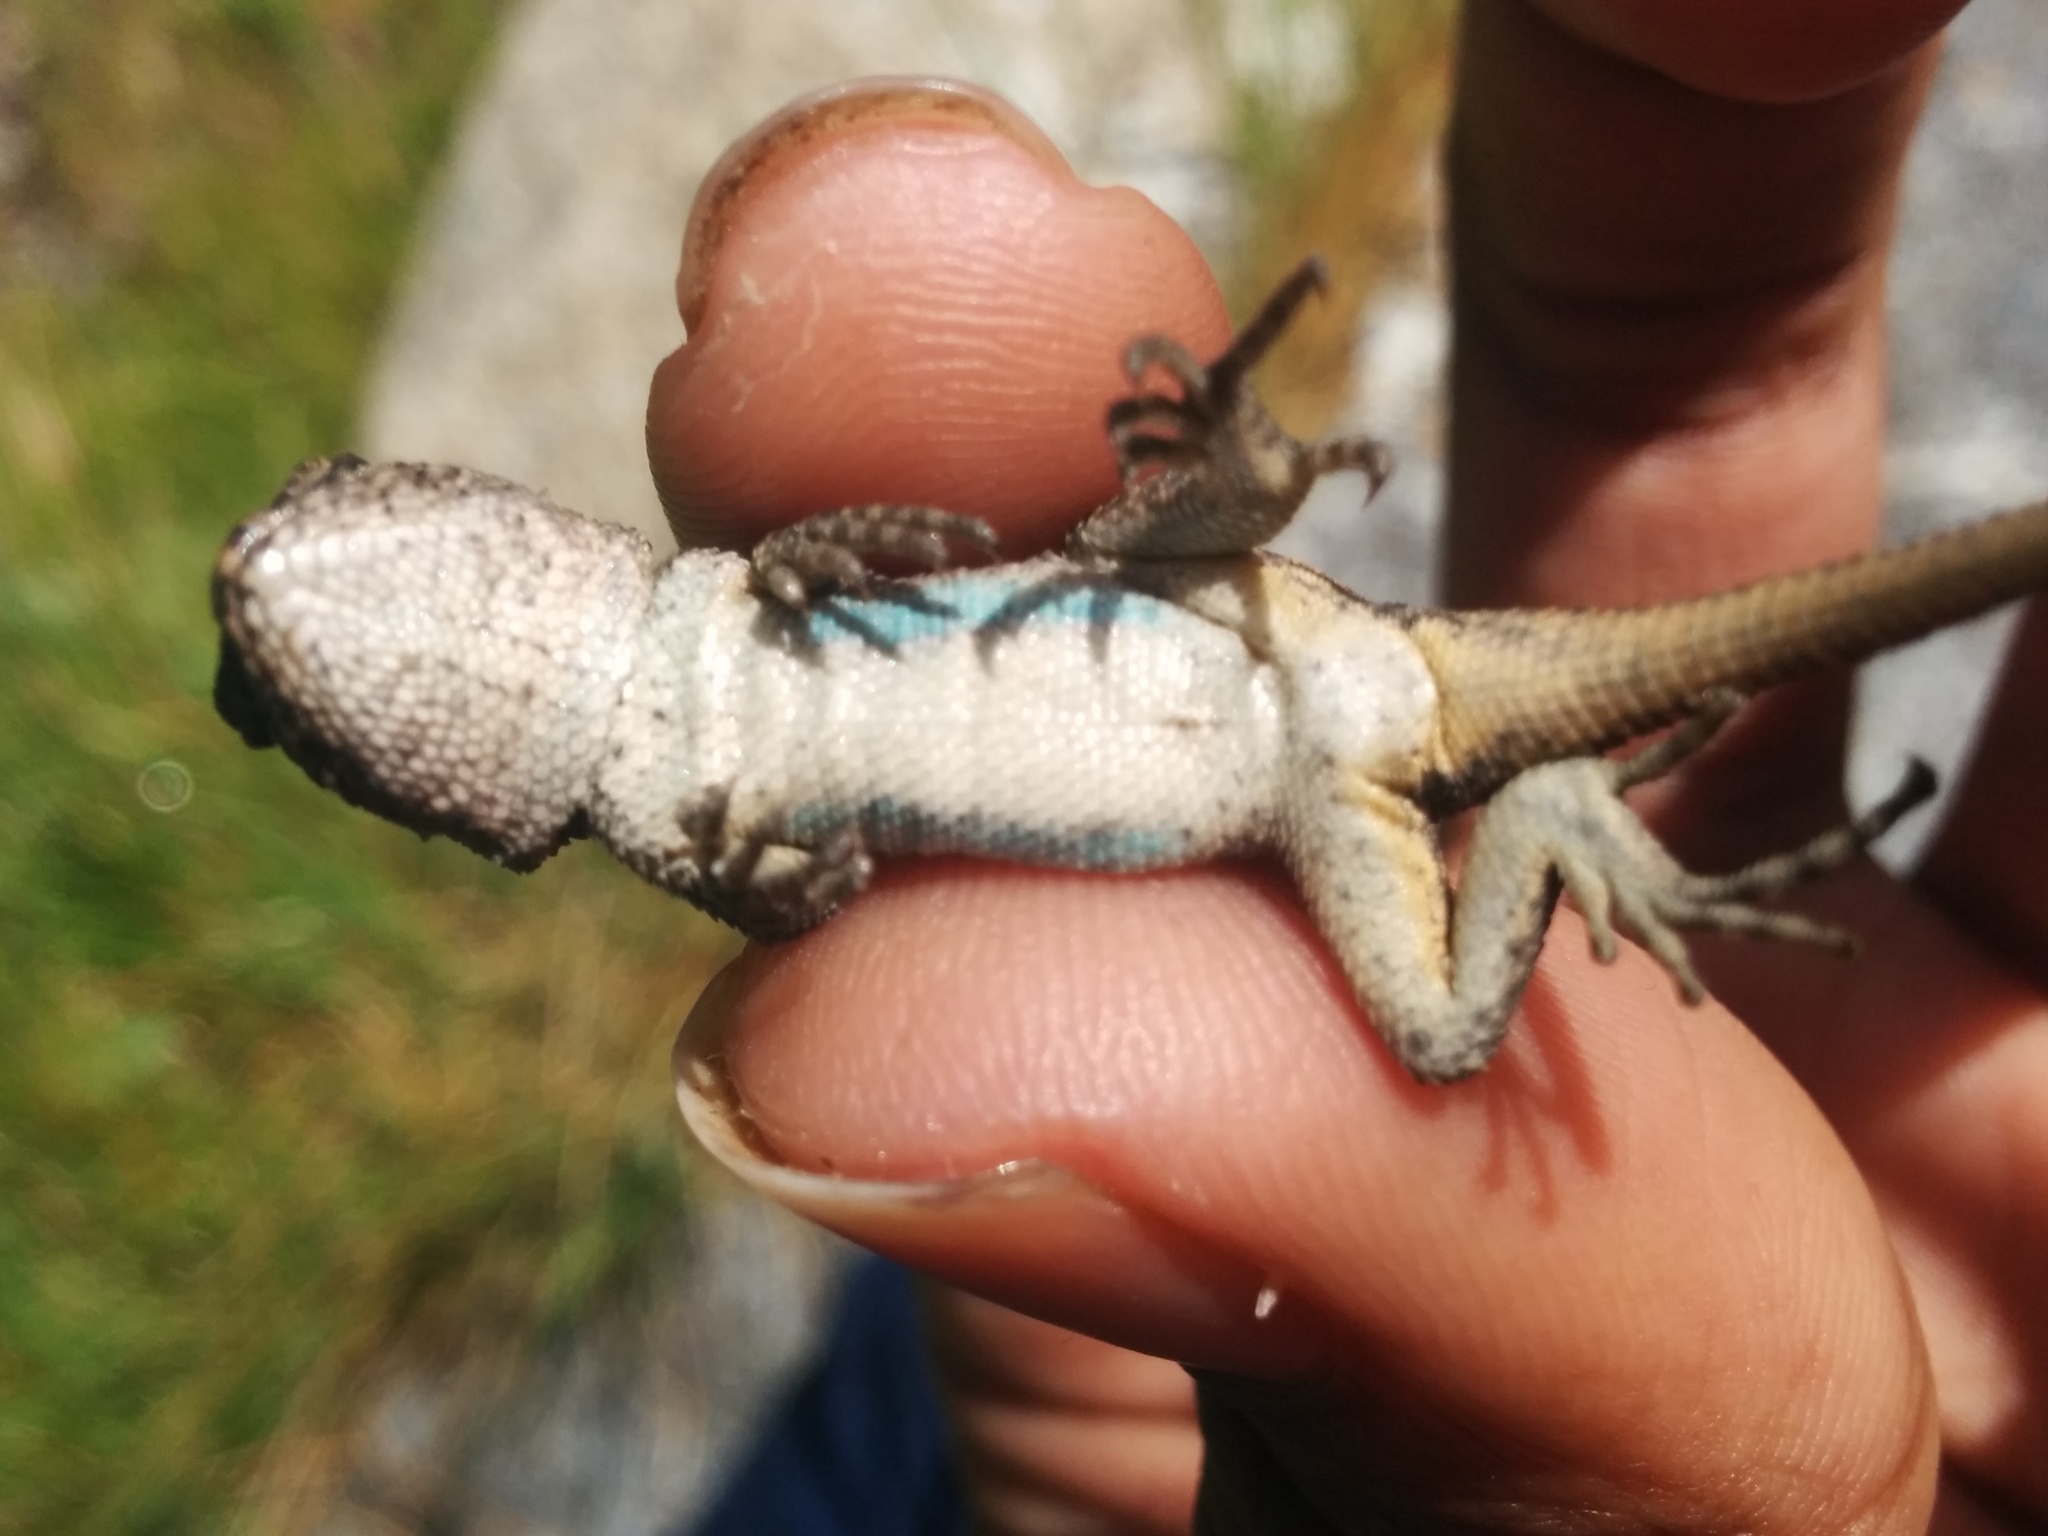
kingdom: Animalia
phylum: Chordata
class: Squamata
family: Phrynosomatidae
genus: Sceloporus
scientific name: Sceloporus occidentalis
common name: Western fence lizard
